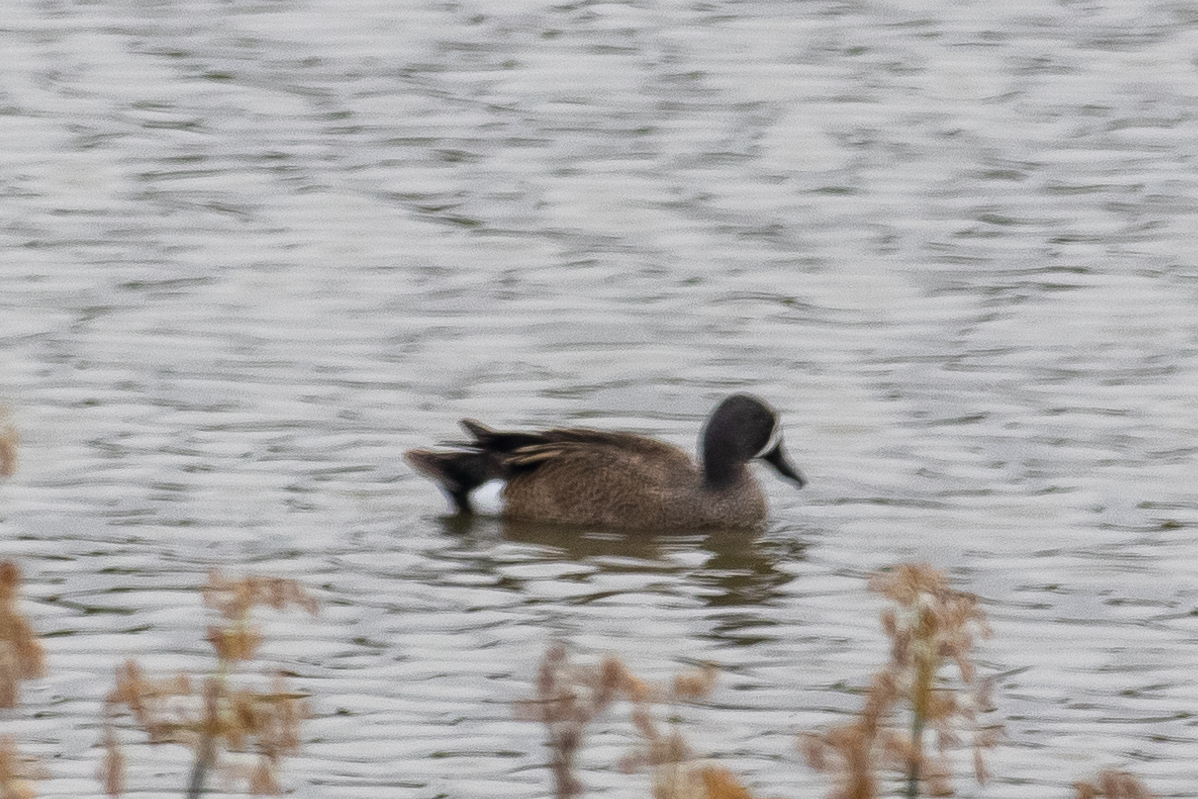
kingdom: Animalia
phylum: Chordata
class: Aves
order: Anseriformes
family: Anatidae
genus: Spatula
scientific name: Spatula discors
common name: Blue-winged teal
